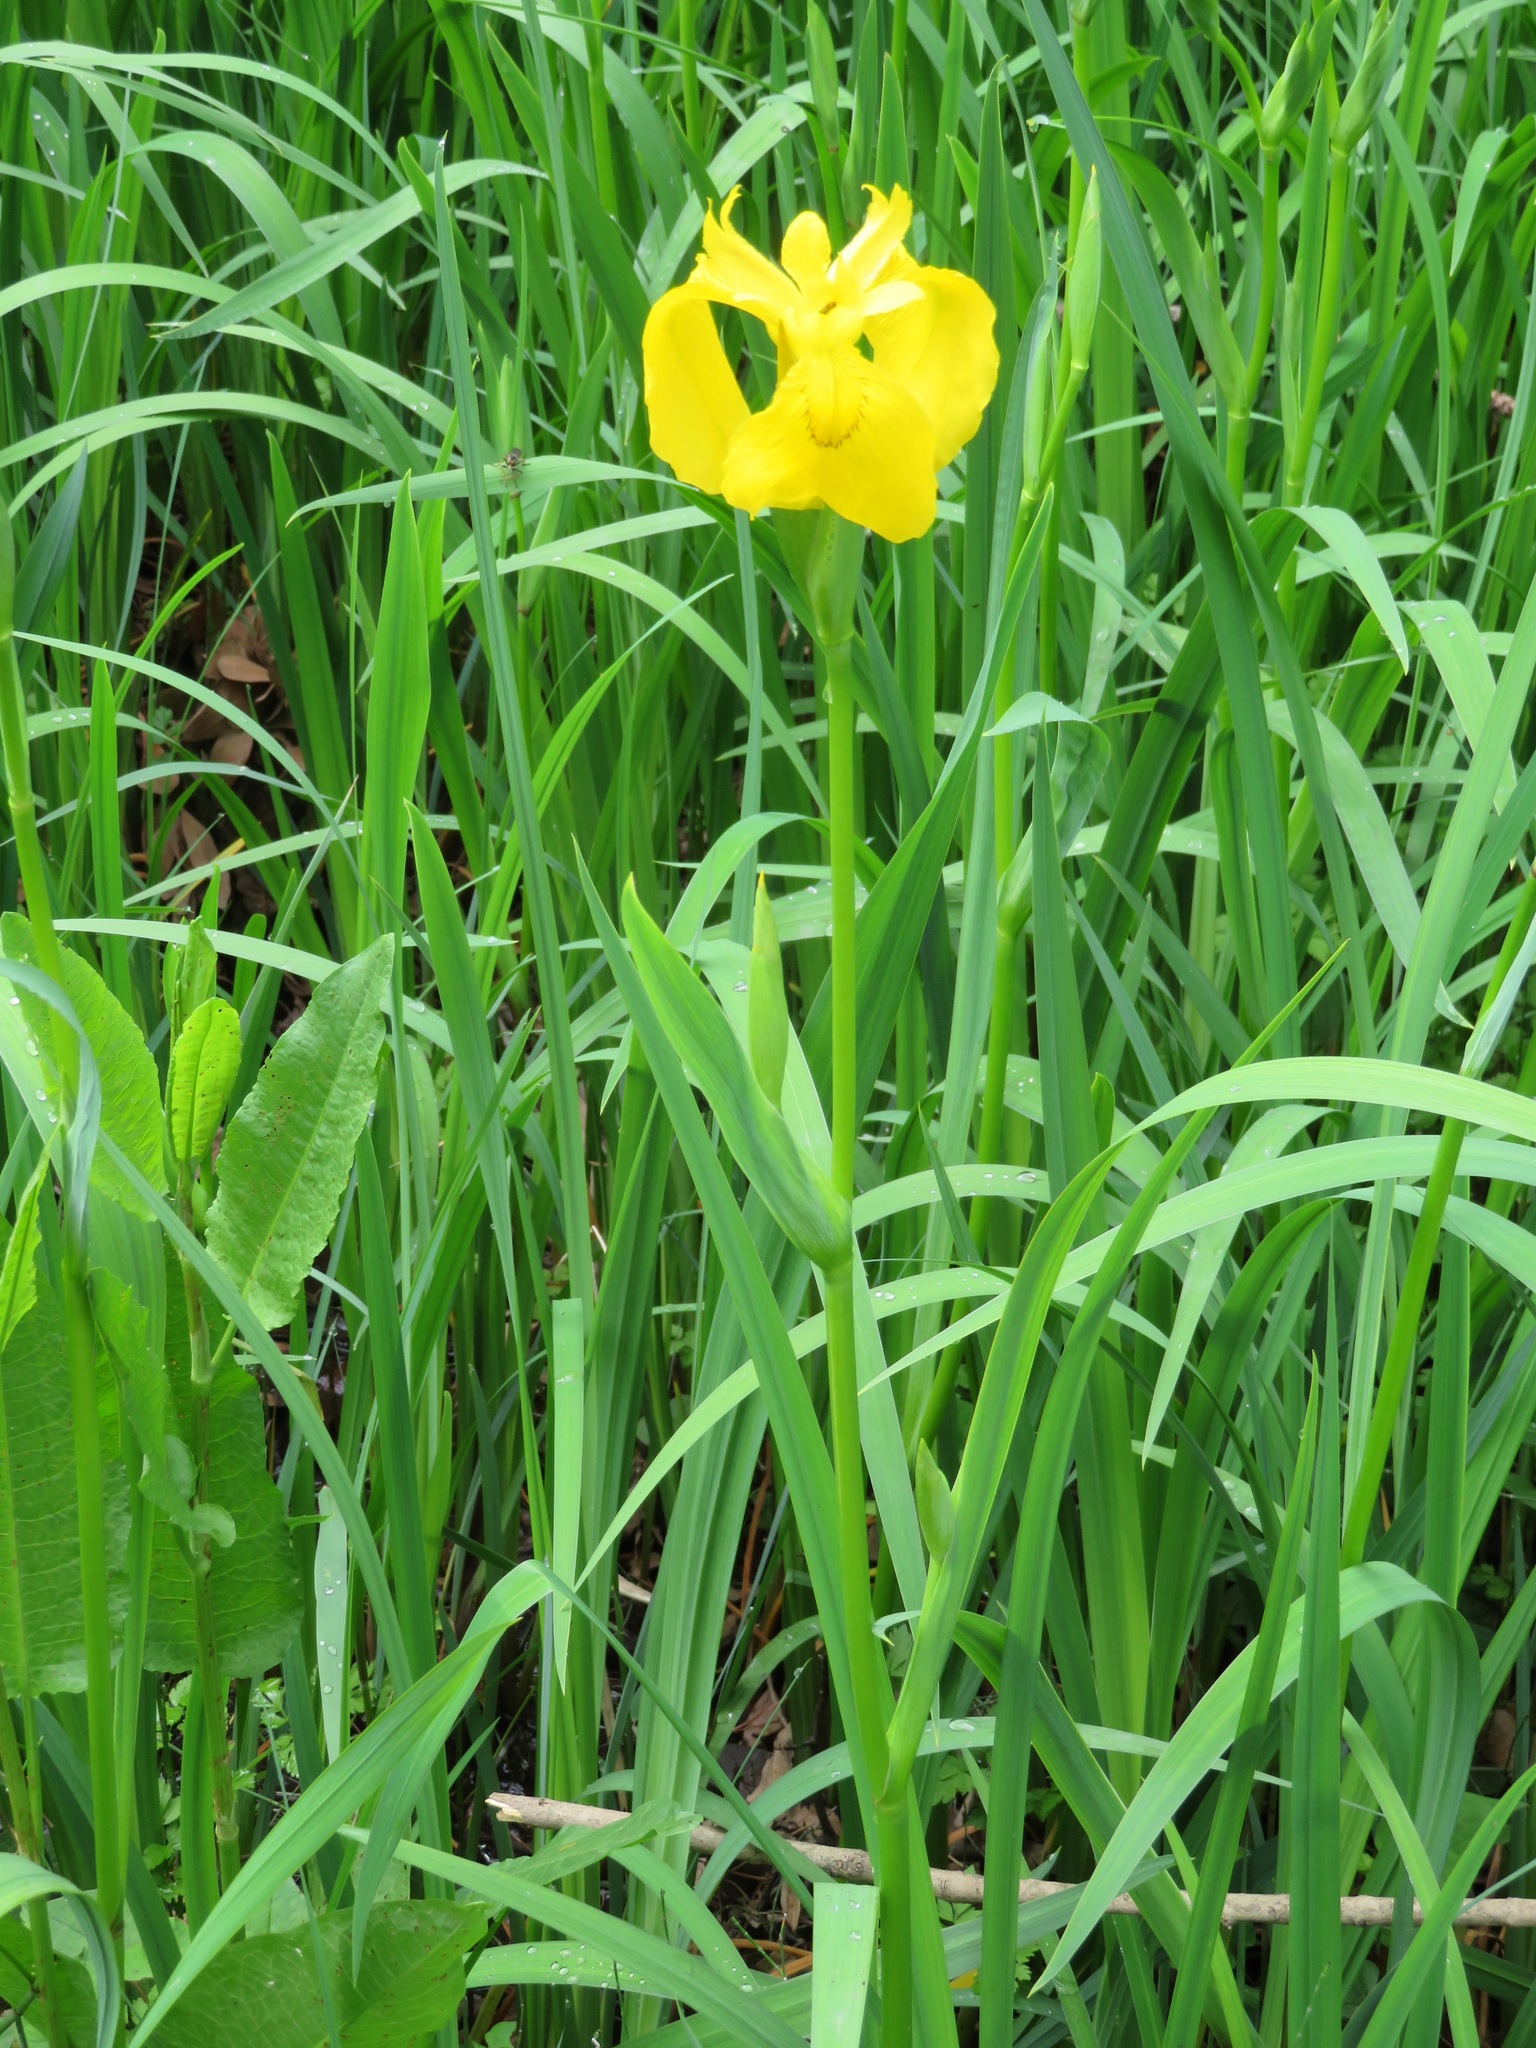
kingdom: Plantae
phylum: Tracheophyta
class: Liliopsida
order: Asparagales
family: Iridaceae
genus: Iris
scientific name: Iris pseudacorus
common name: Yellow flag
